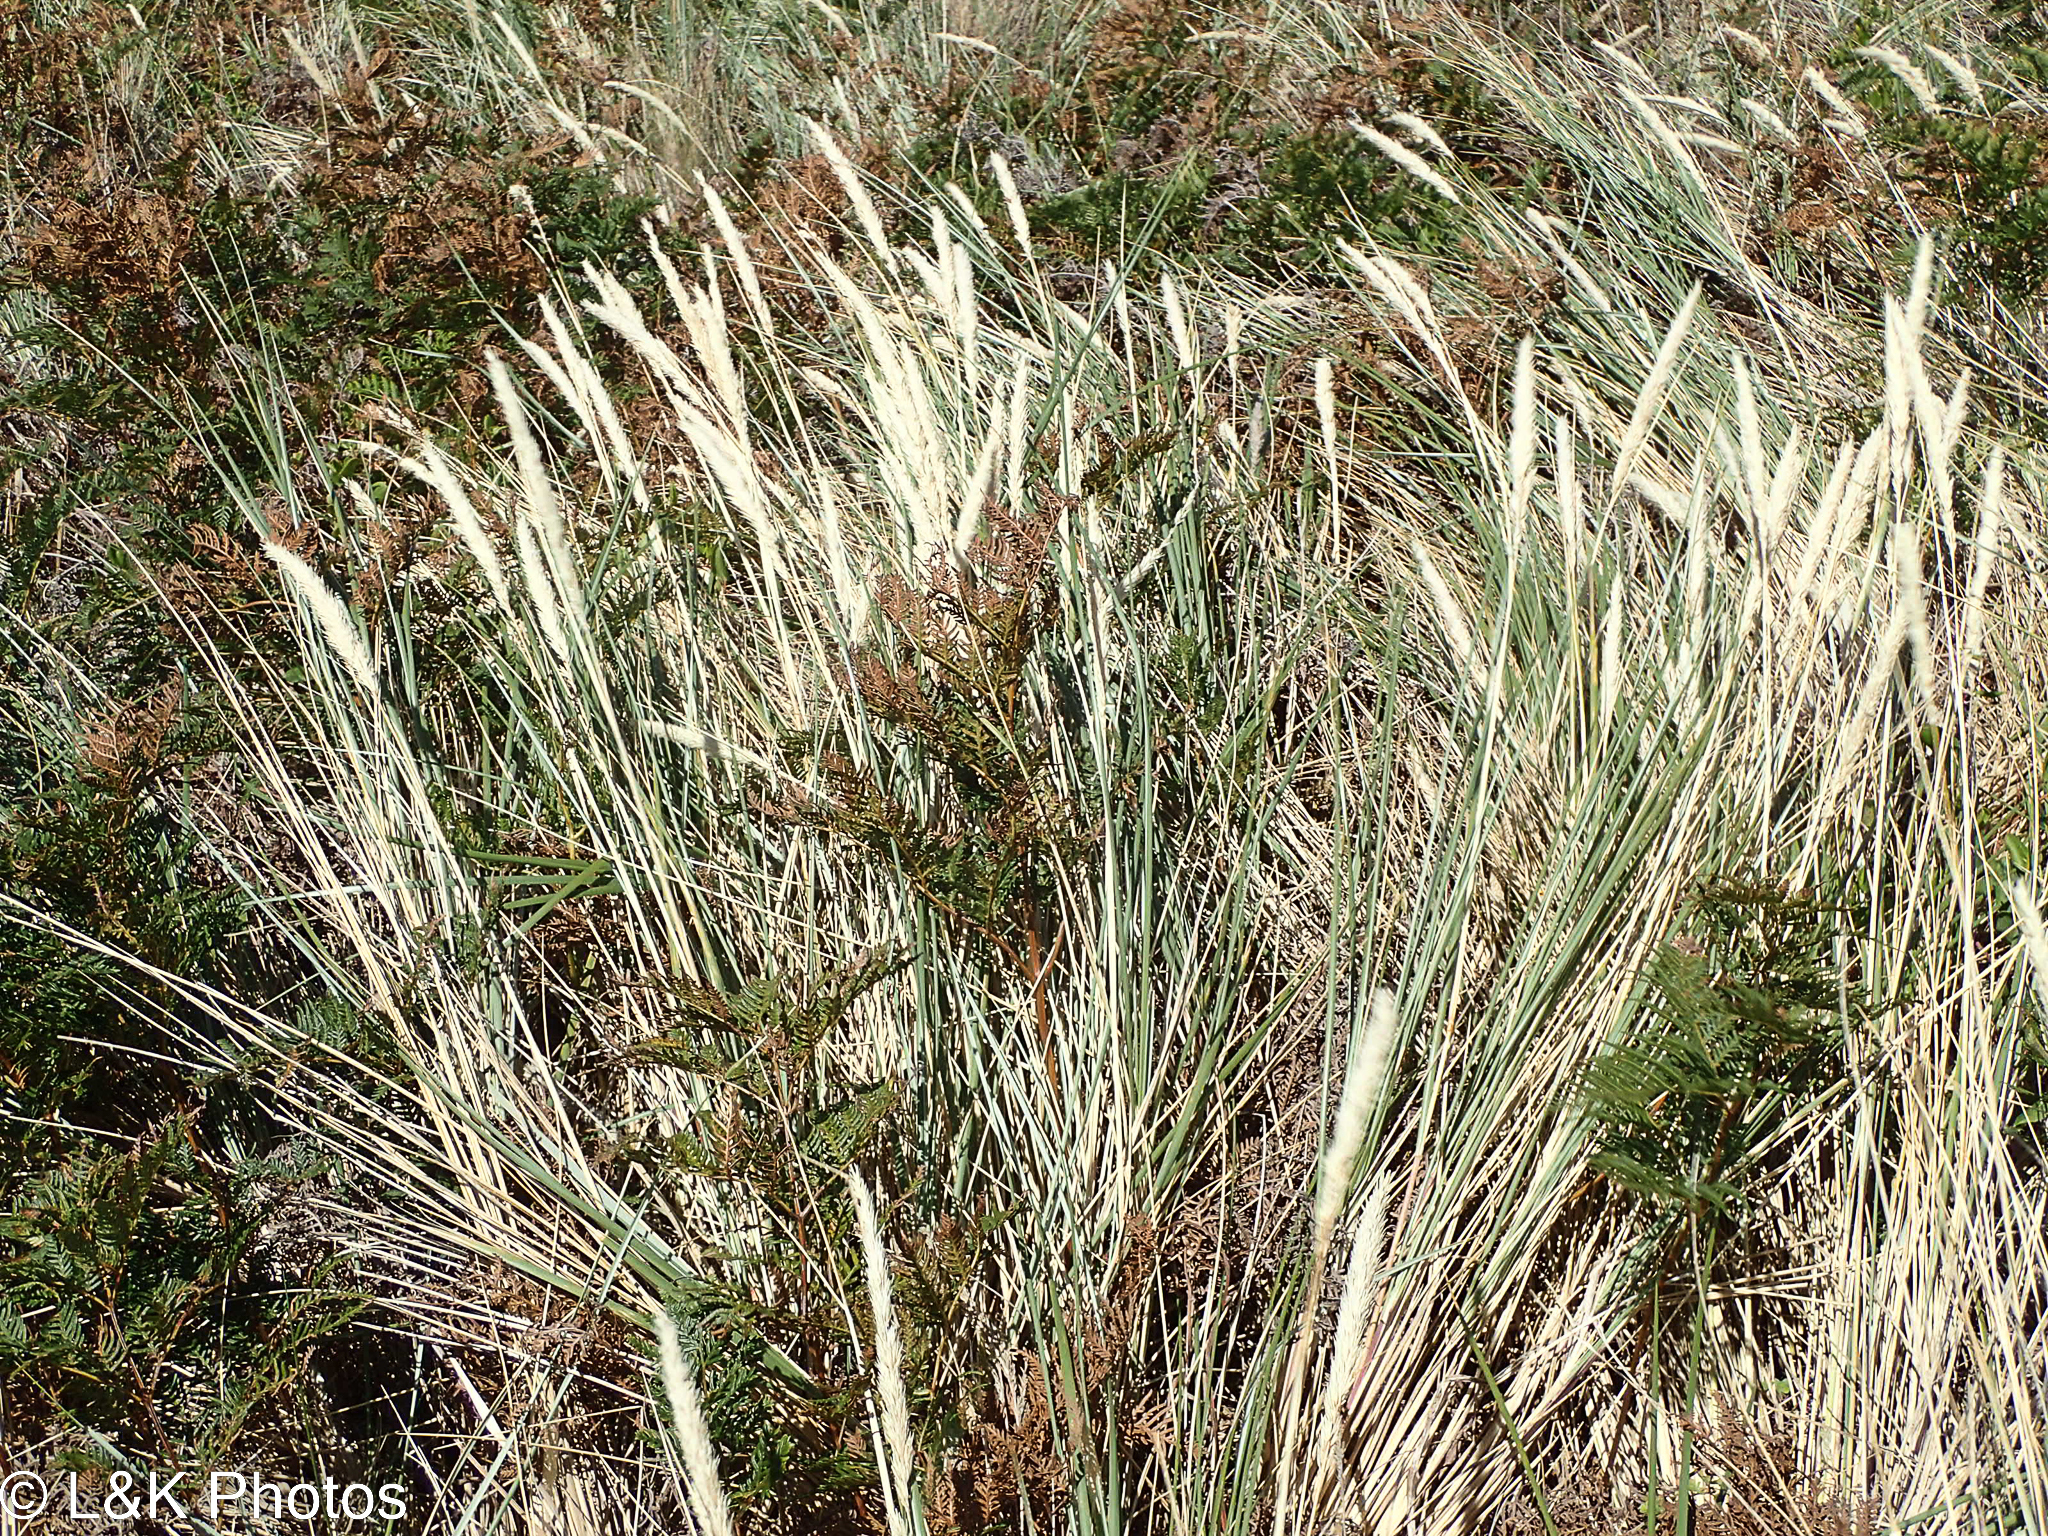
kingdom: Plantae
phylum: Tracheophyta
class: Liliopsida
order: Poales
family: Poaceae
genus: Calamagrostis
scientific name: Calamagrostis arenaria
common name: European beachgrass
